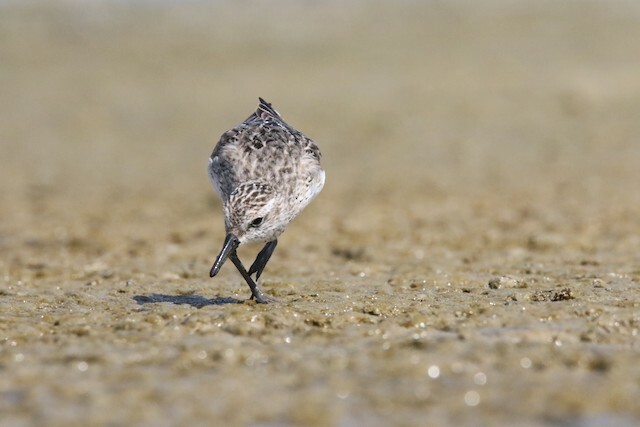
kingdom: Animalia
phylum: Chordata
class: Aves
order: Charadriiformes
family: Scolopacidae
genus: Calidris
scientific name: Calidris pusilla
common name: Semipalmated sandpiper
